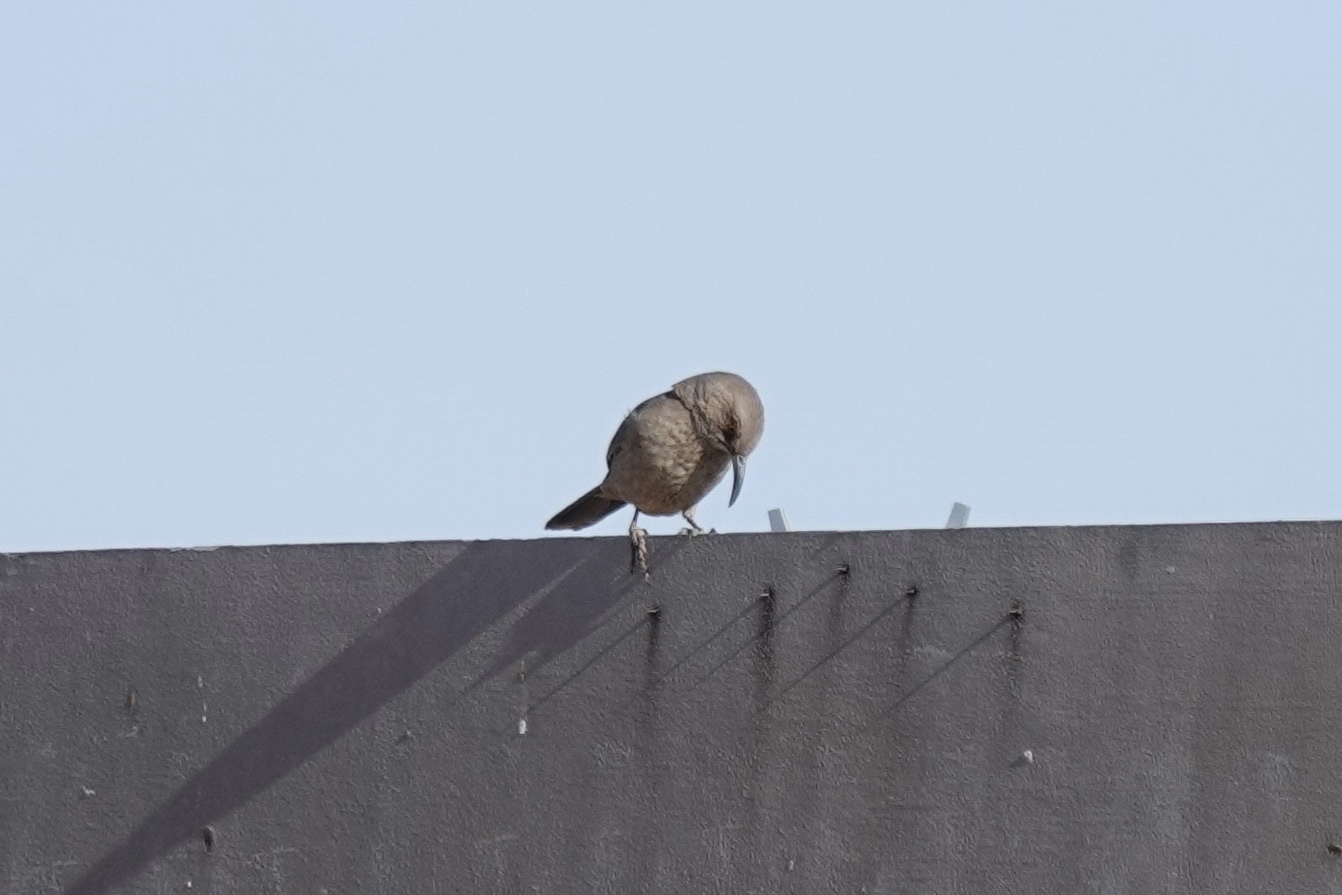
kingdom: Animalia
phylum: Chordata
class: Aves
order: Passeriformes
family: Mimidae
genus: Toxostoma
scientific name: Toxostoma curvirostre
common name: Curve-billed thrasher
